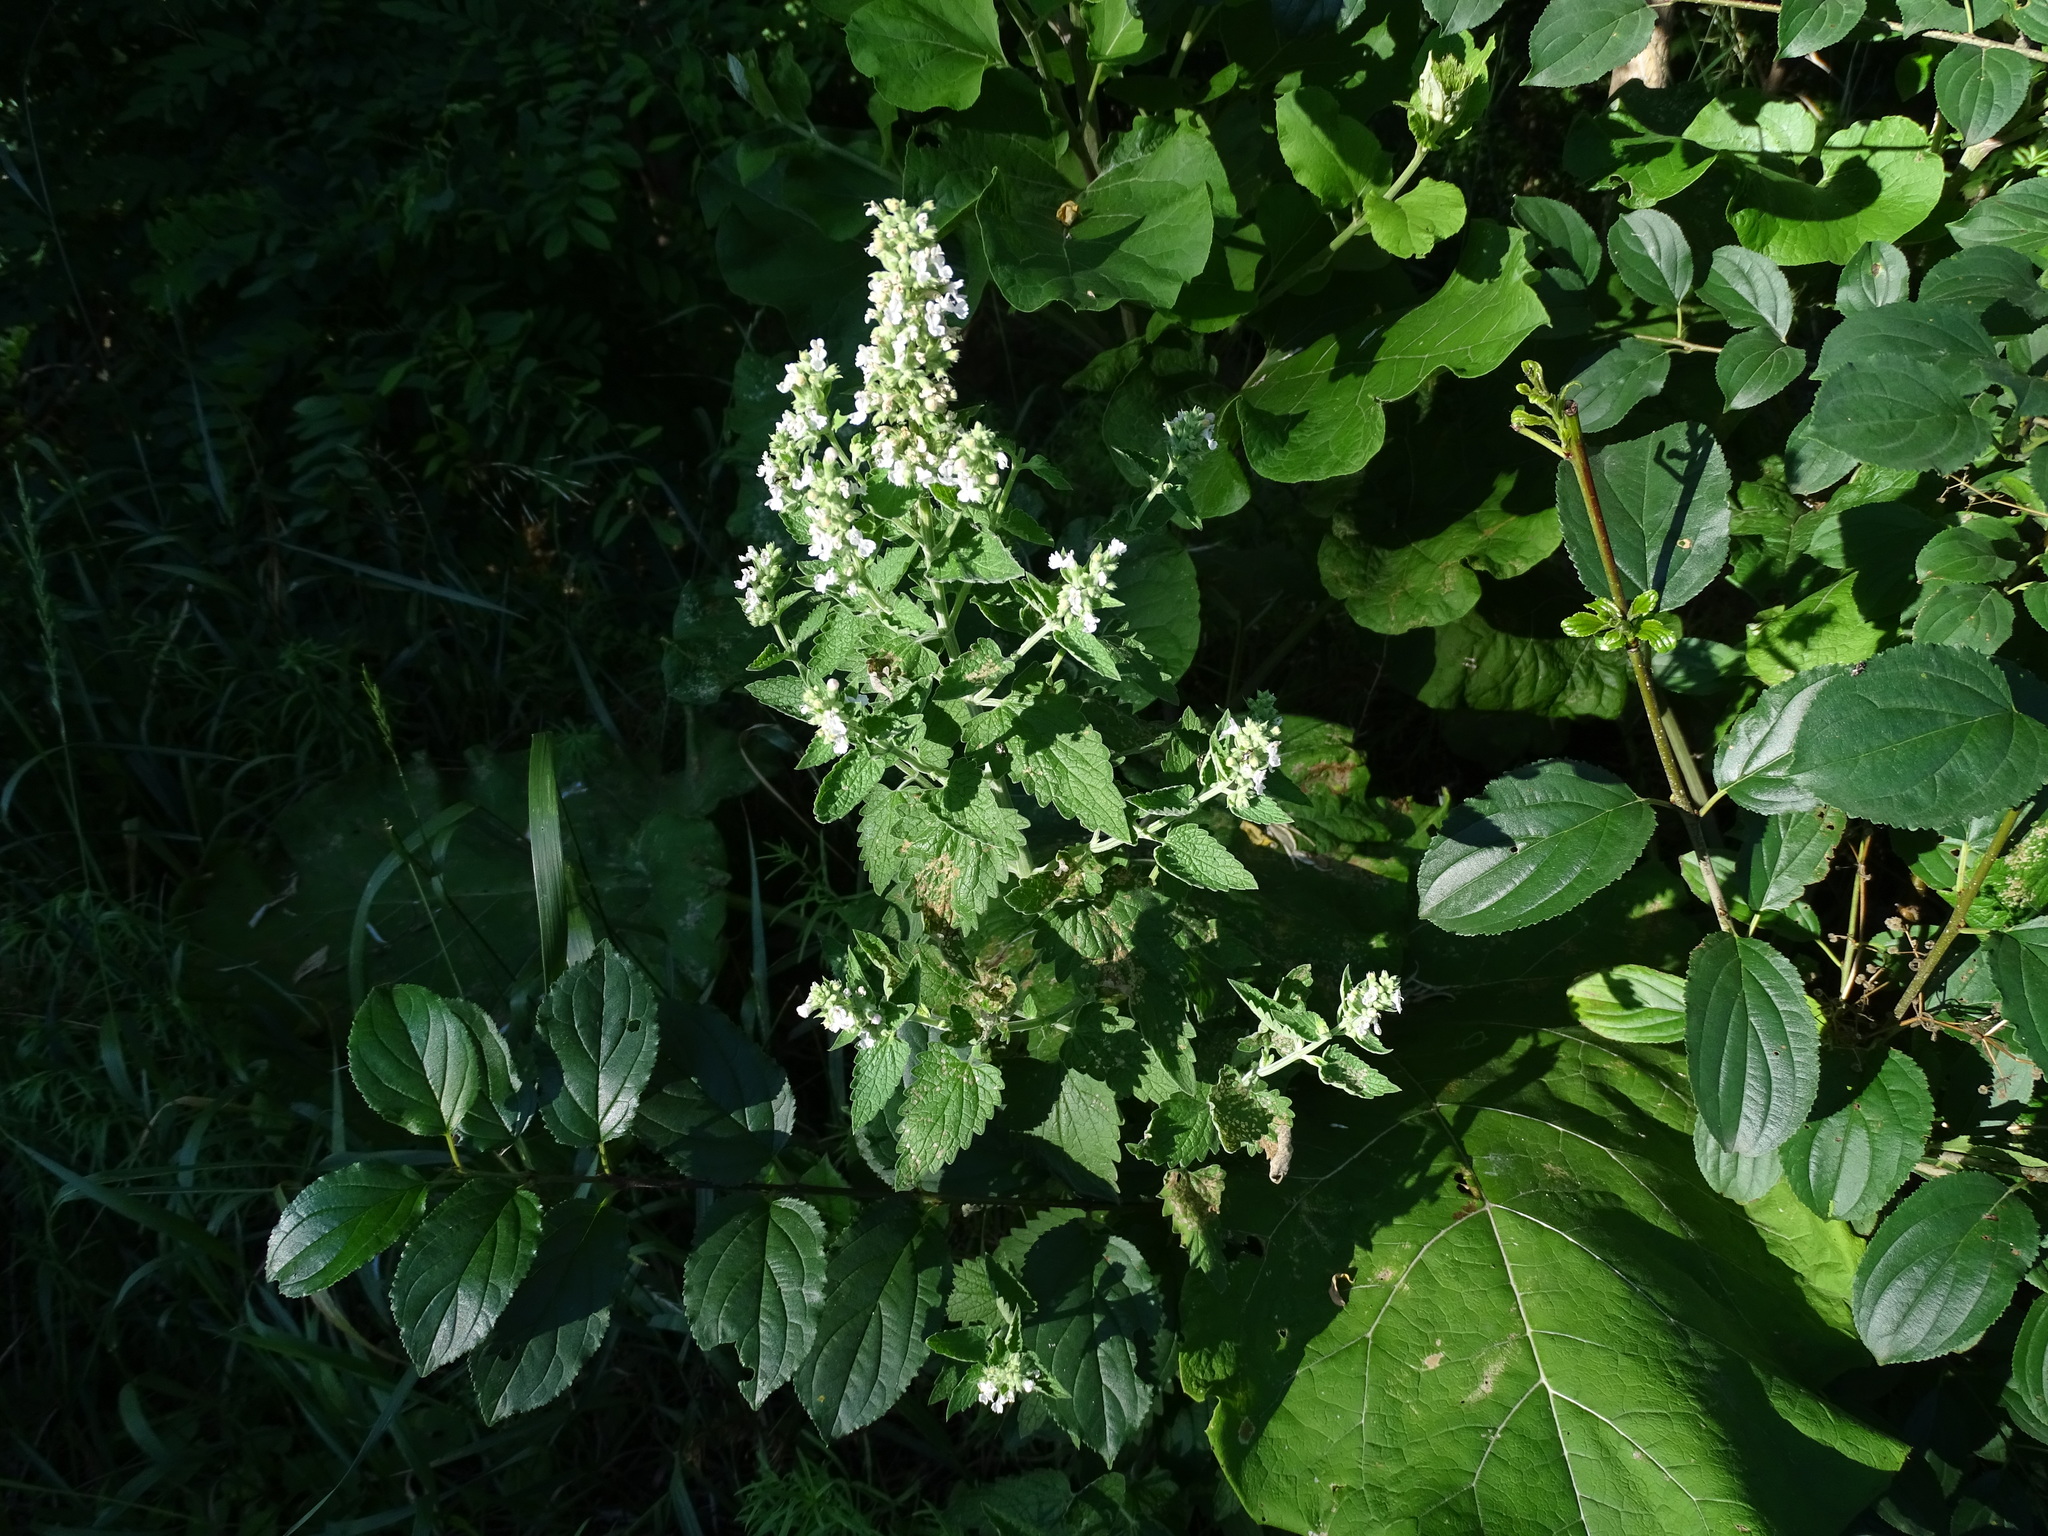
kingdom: Plantae
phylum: Tracheophyta
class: Magnoliopsida
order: Lamiales
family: Lamiaceae
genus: Nepeta
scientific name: Nepeta cataria
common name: Catnip
